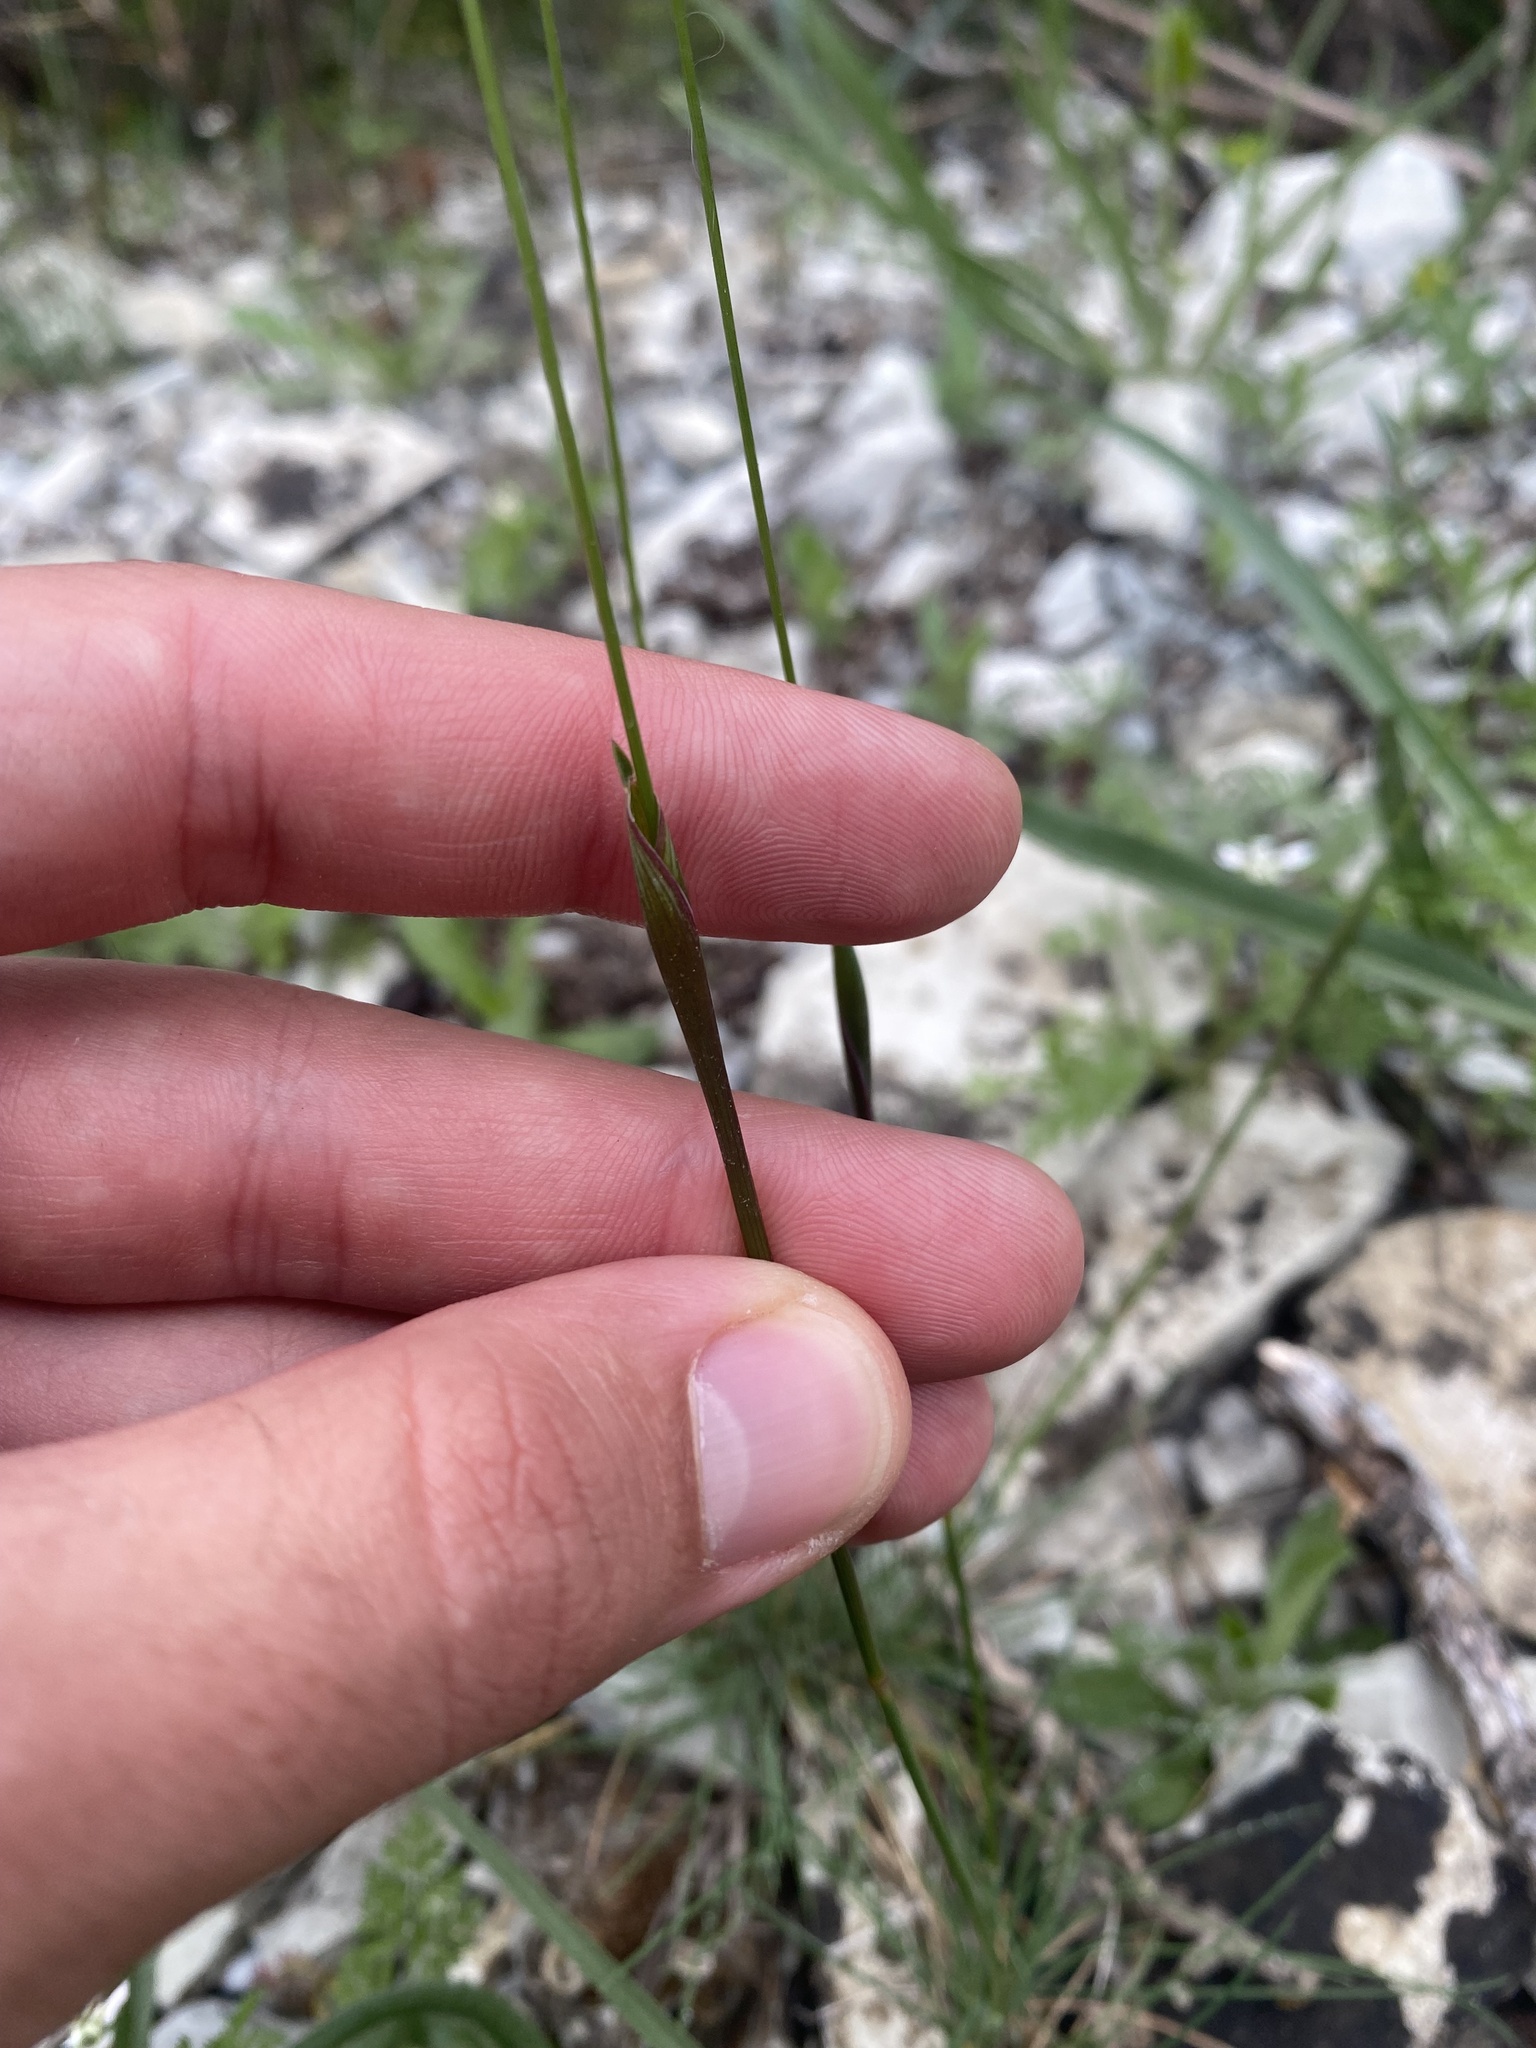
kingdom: Plantae
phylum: Tracheophyta
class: Liliopsida
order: Poales
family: Poaceae
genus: Alopecurus
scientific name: Alopecurus vaginatus
